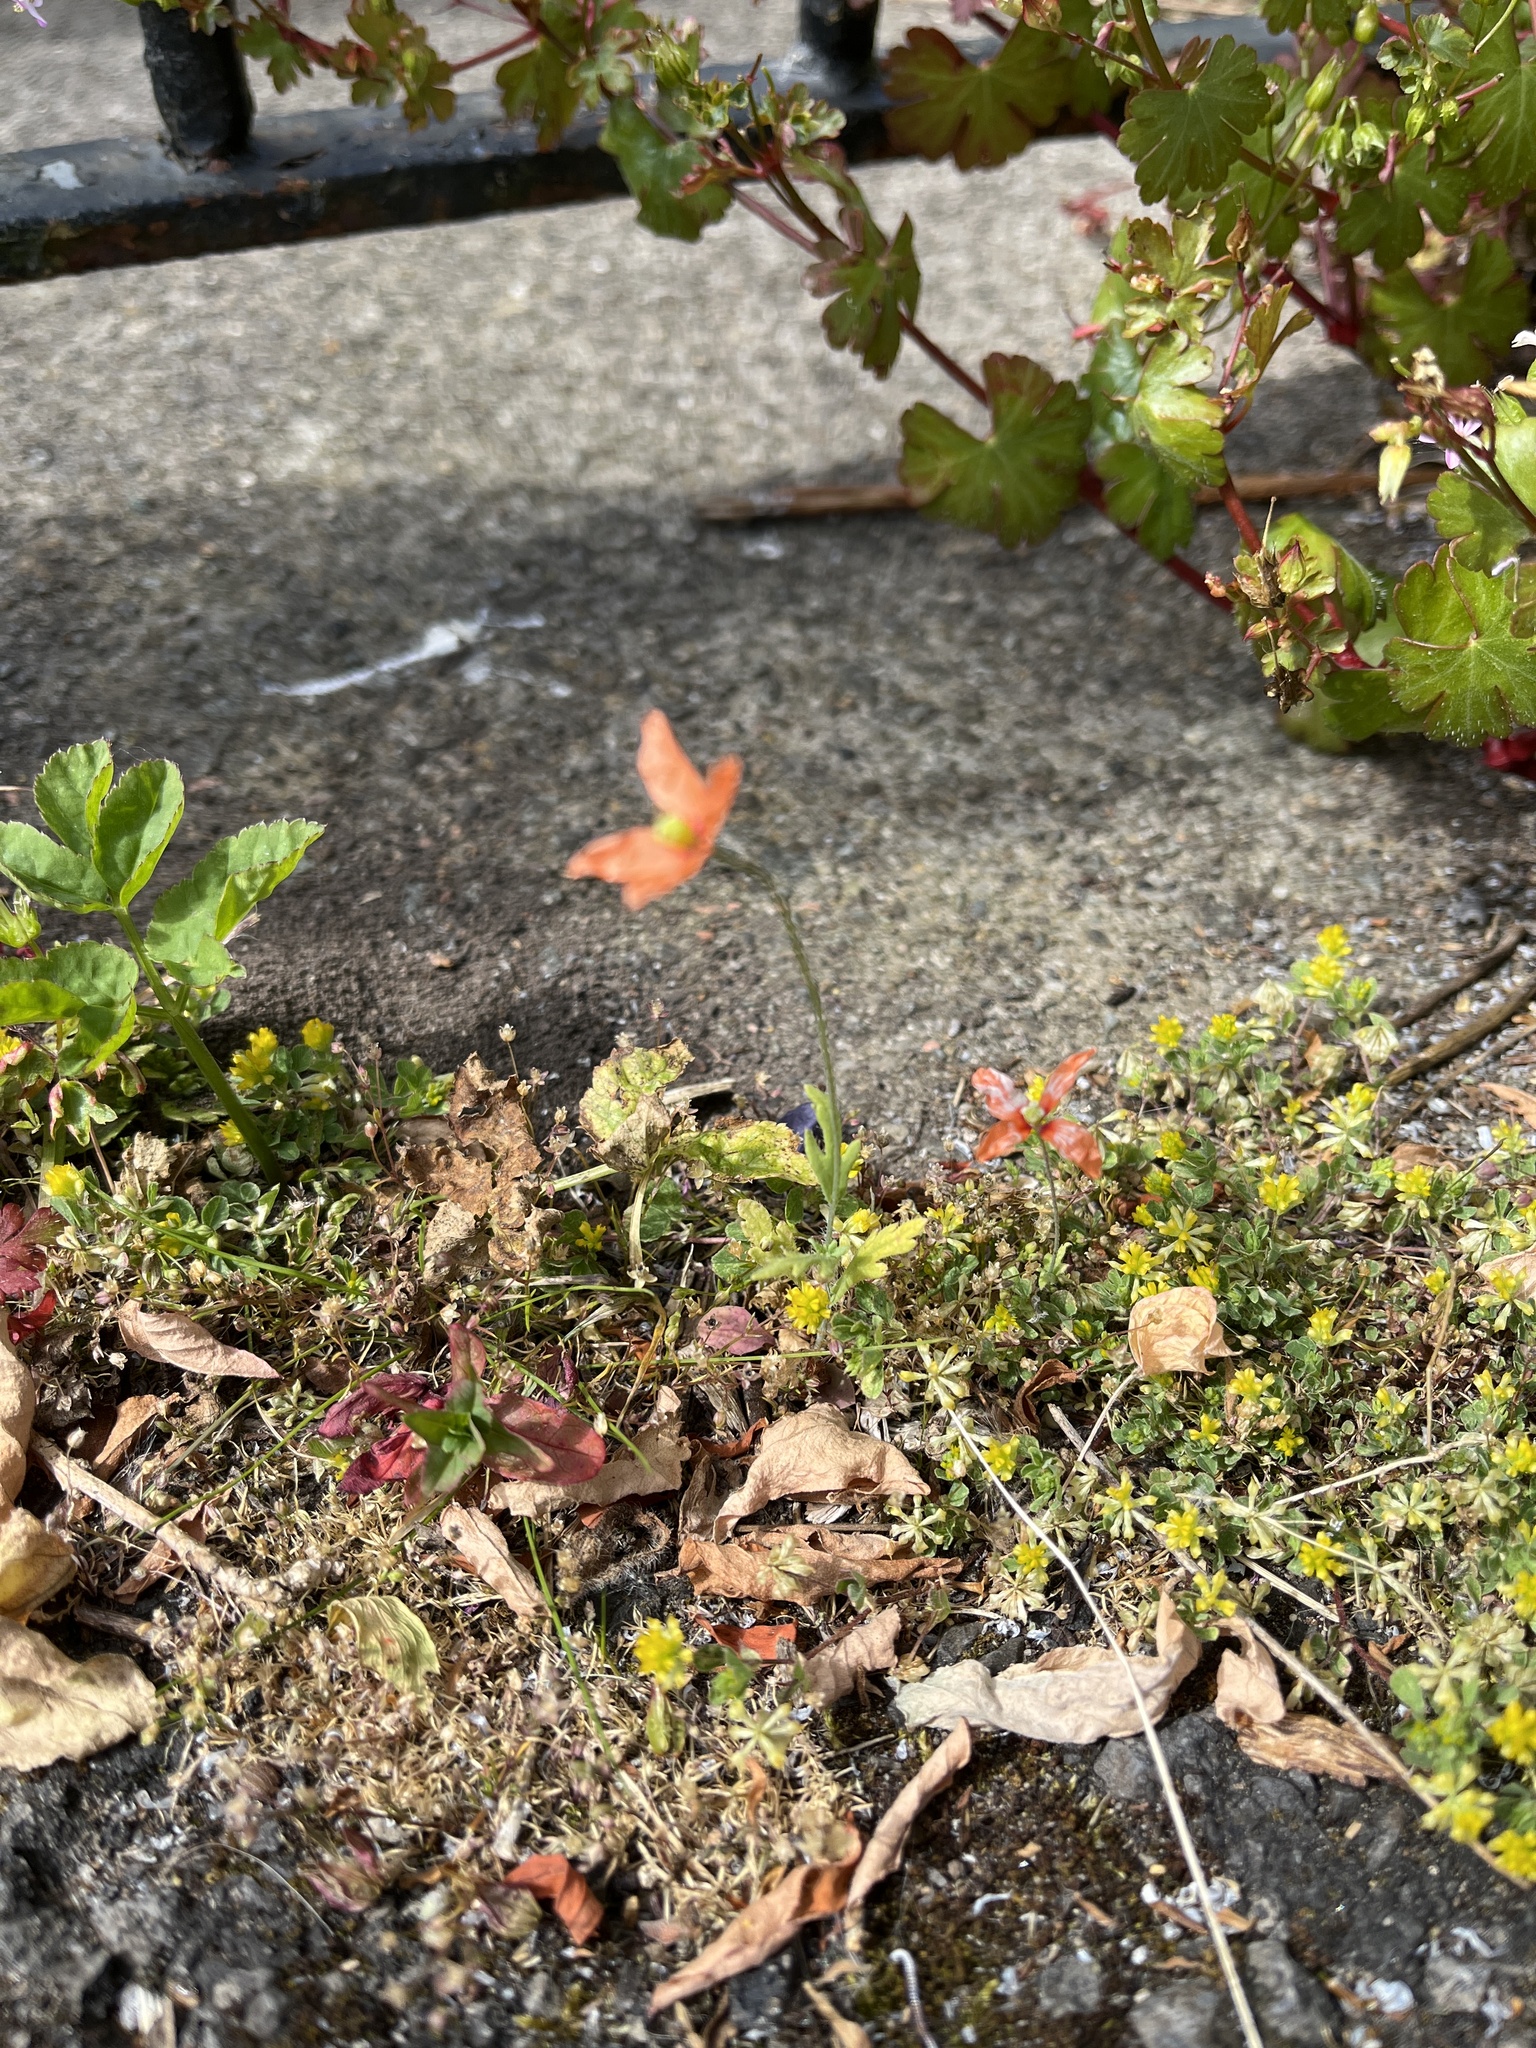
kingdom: Plantae
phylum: Tracheophyta
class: Magnoliopsida
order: Ranunculales
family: Papaveraceae
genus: Papaver
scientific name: Papaver dubium
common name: Long-headed poppy
